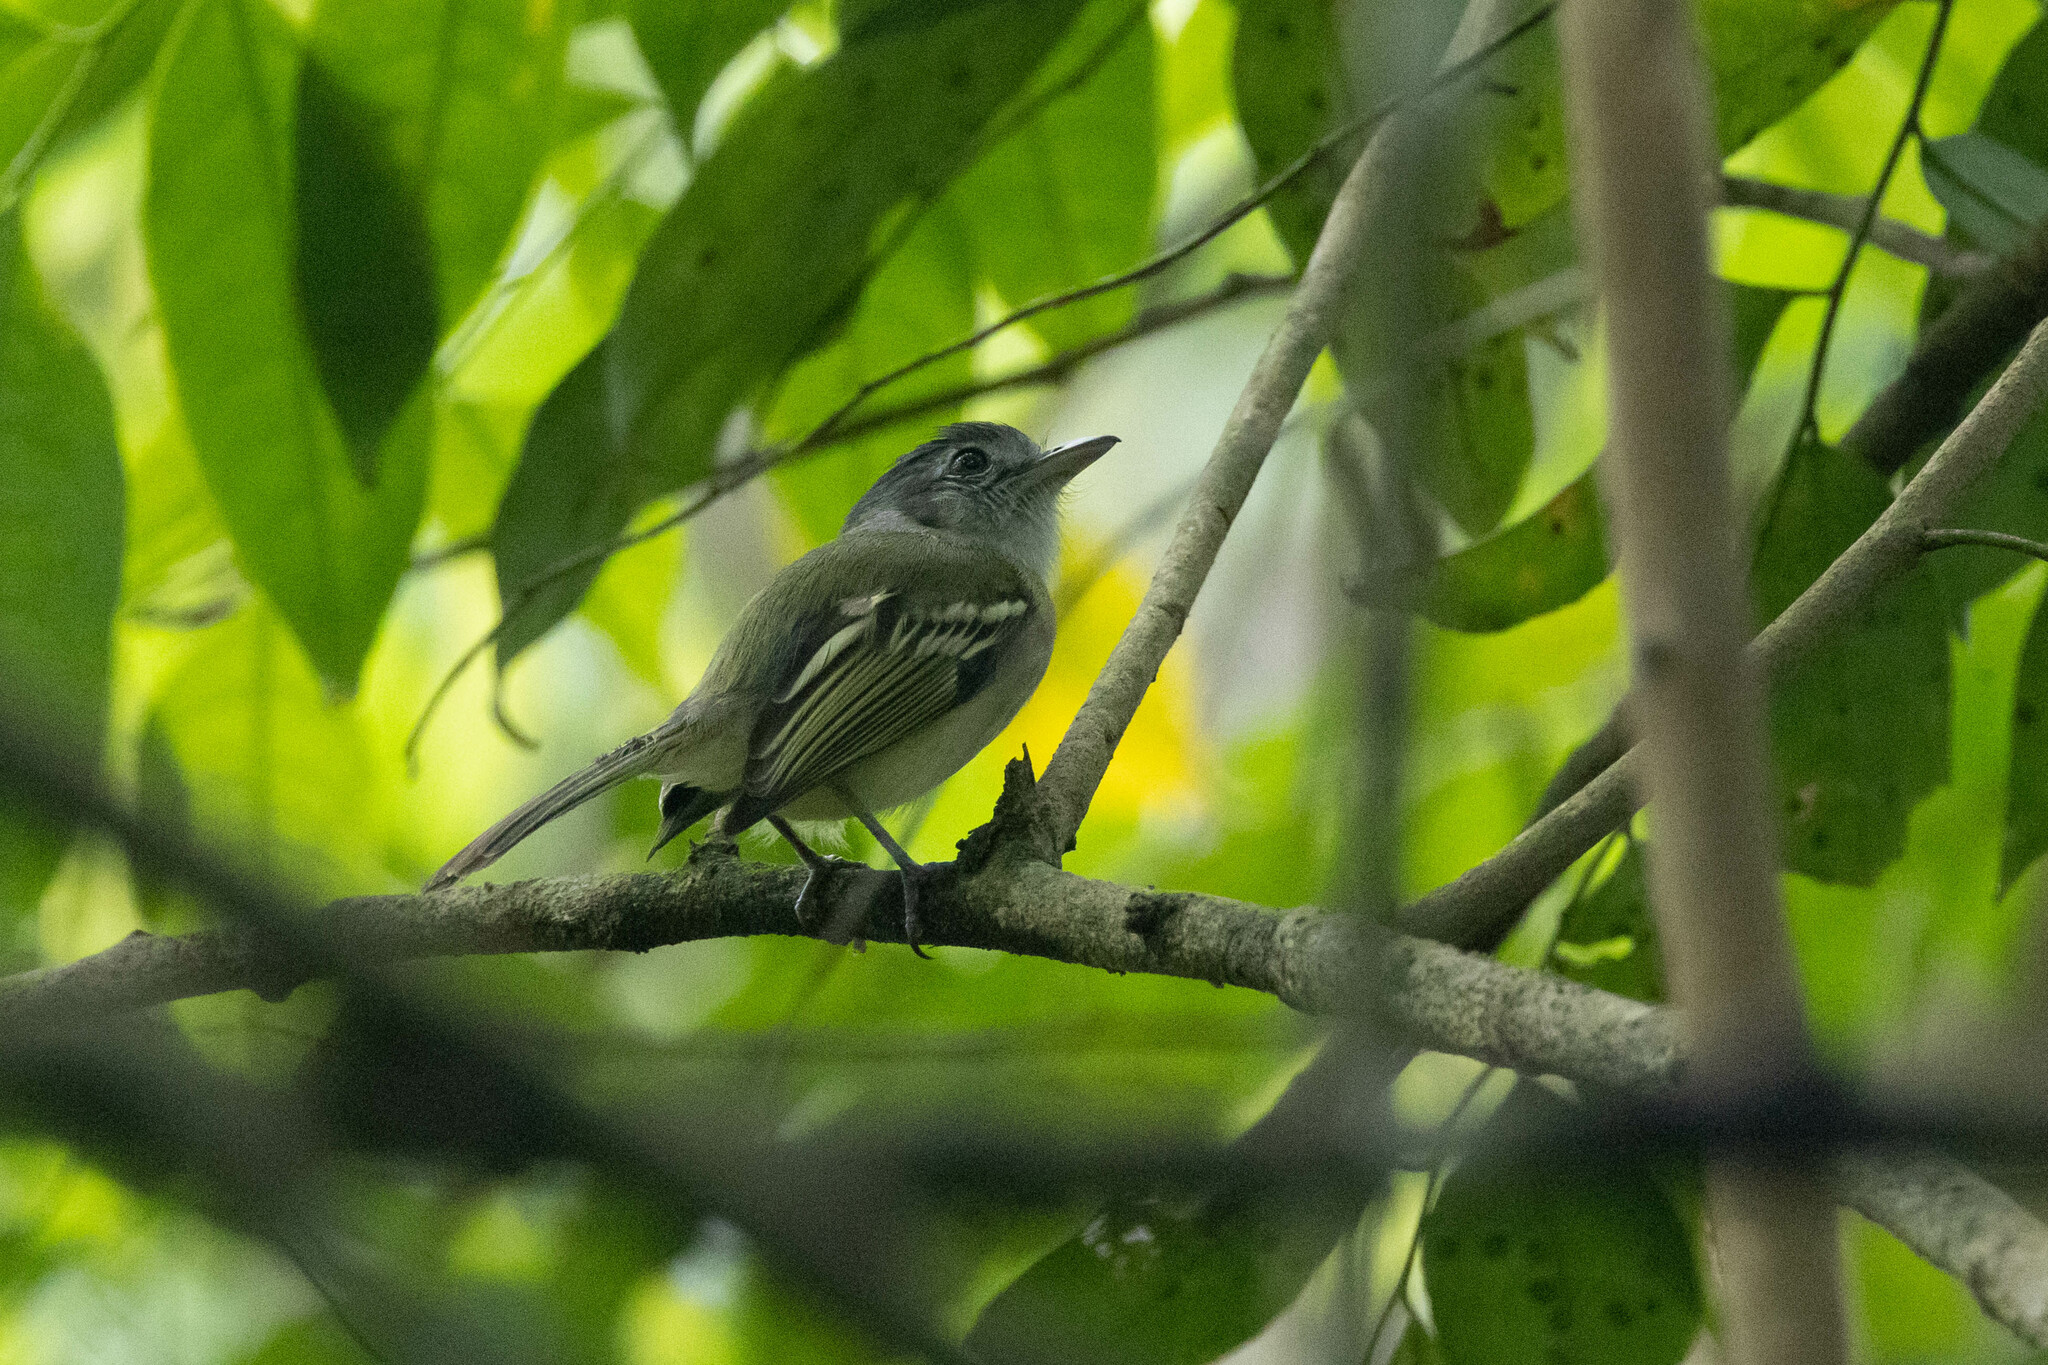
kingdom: Animalia
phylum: Chordata
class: Aves
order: Passeriformes
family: Tyrannidae
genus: Tolmomyias
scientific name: Tolmomyias sulphurescens
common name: Yellow-olive flycatcher
